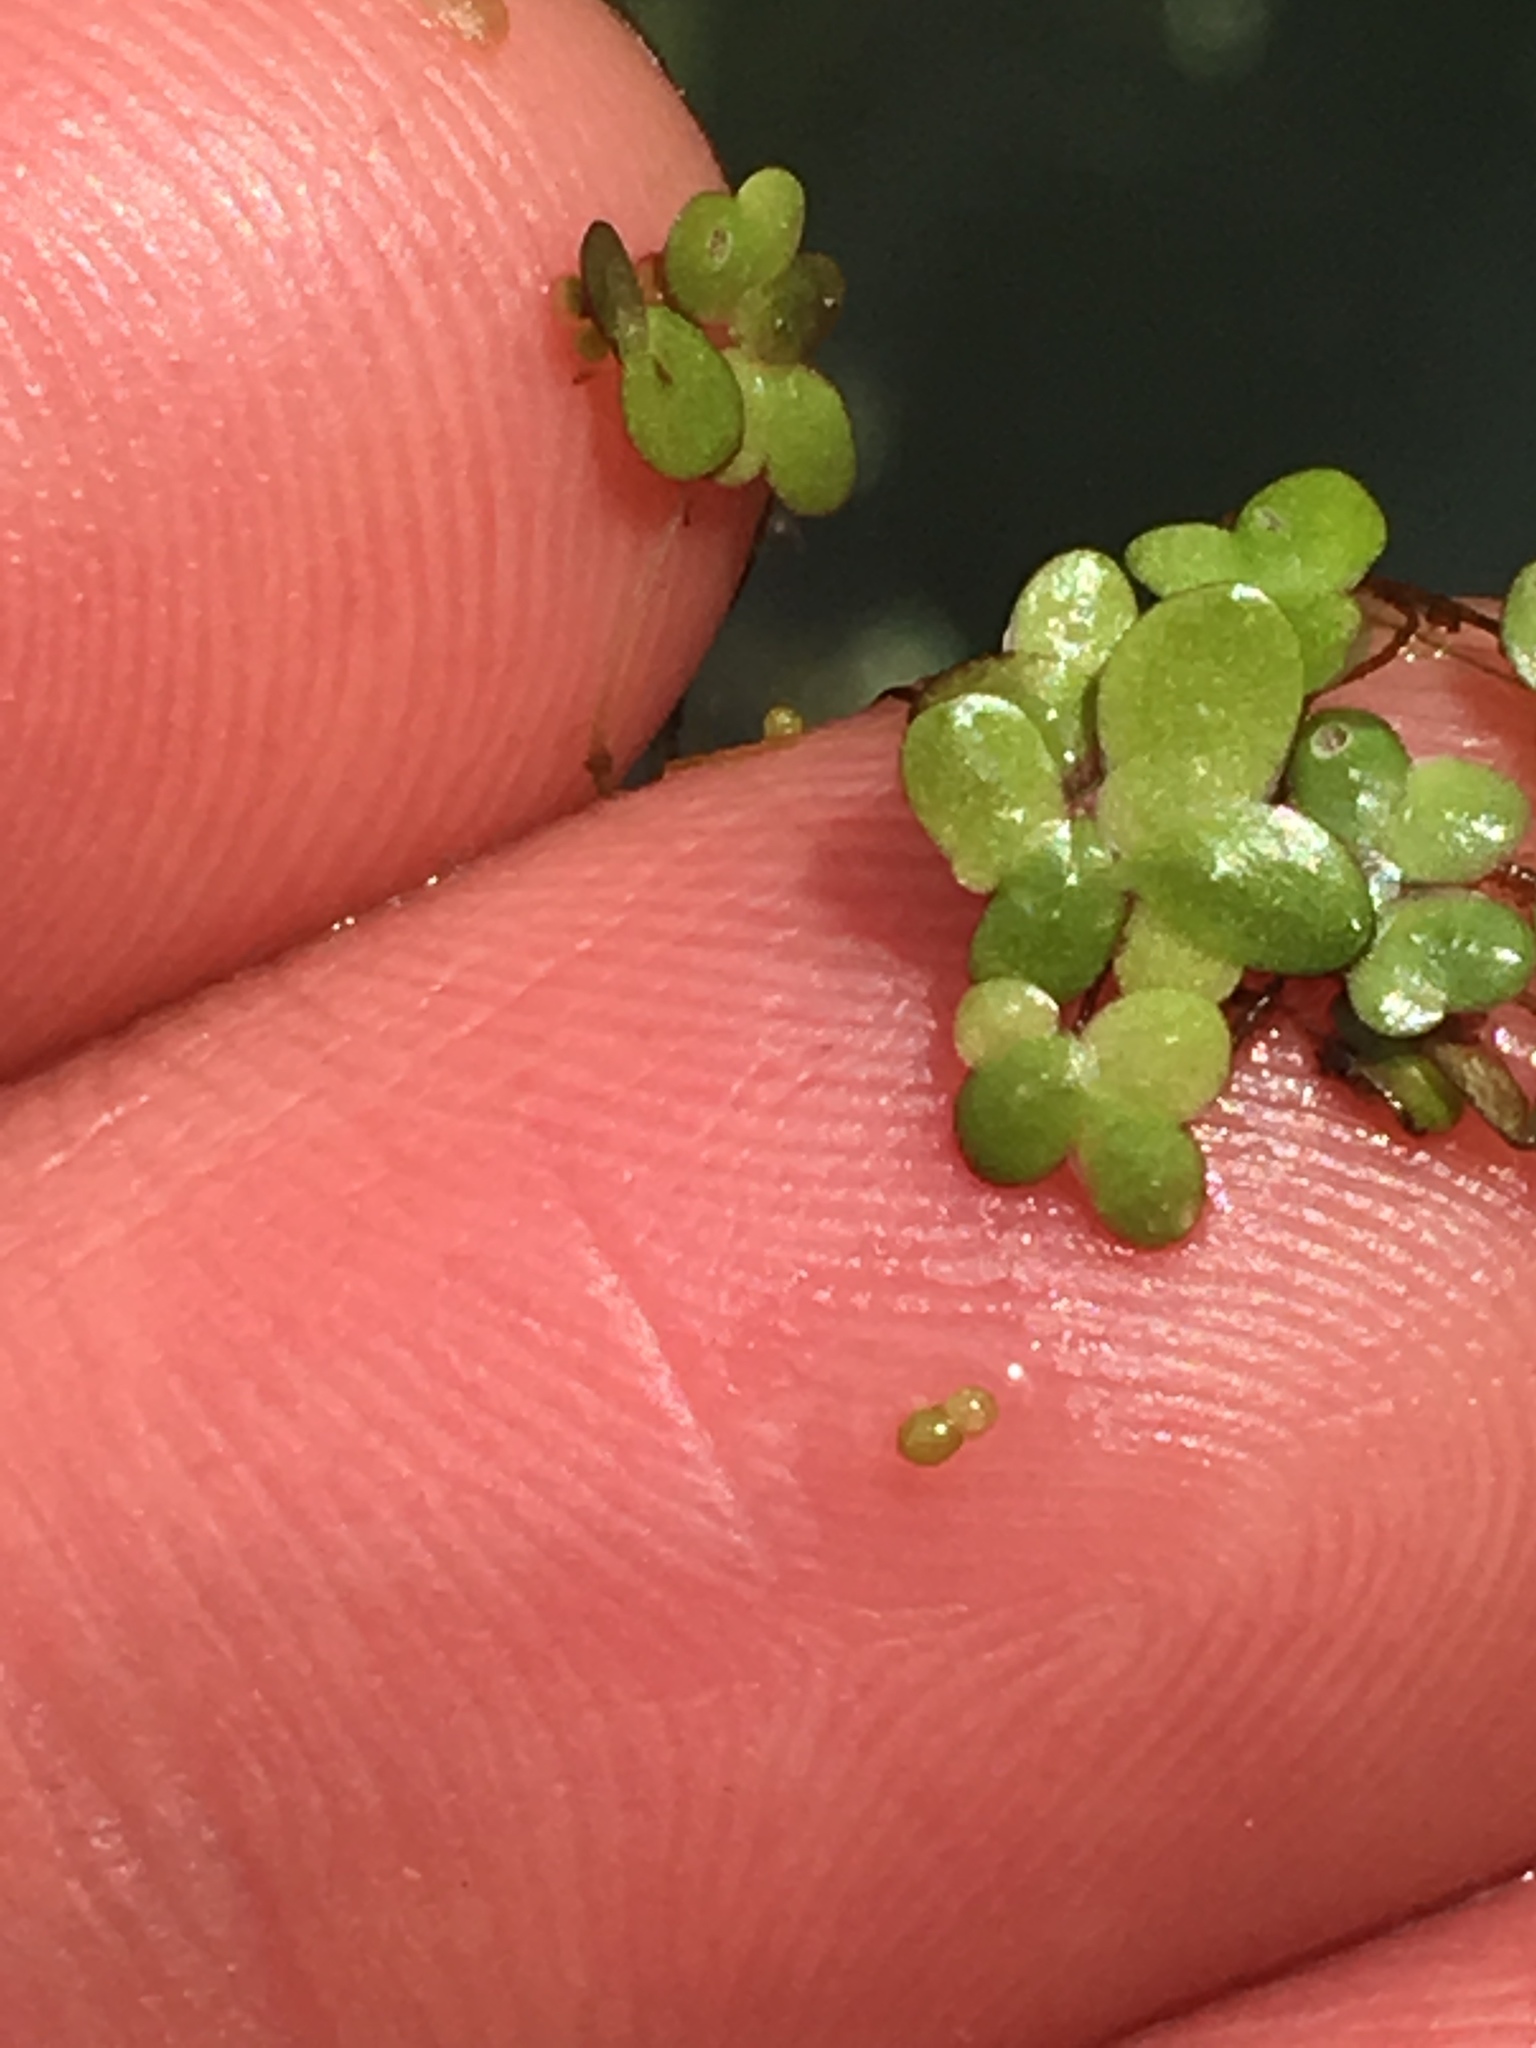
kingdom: Plantae
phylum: Tracheophyta
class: Liliopsida
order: Alismatales
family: Araceae
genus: Wolffia
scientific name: Wolffia borealis
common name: Dotted watermeal
